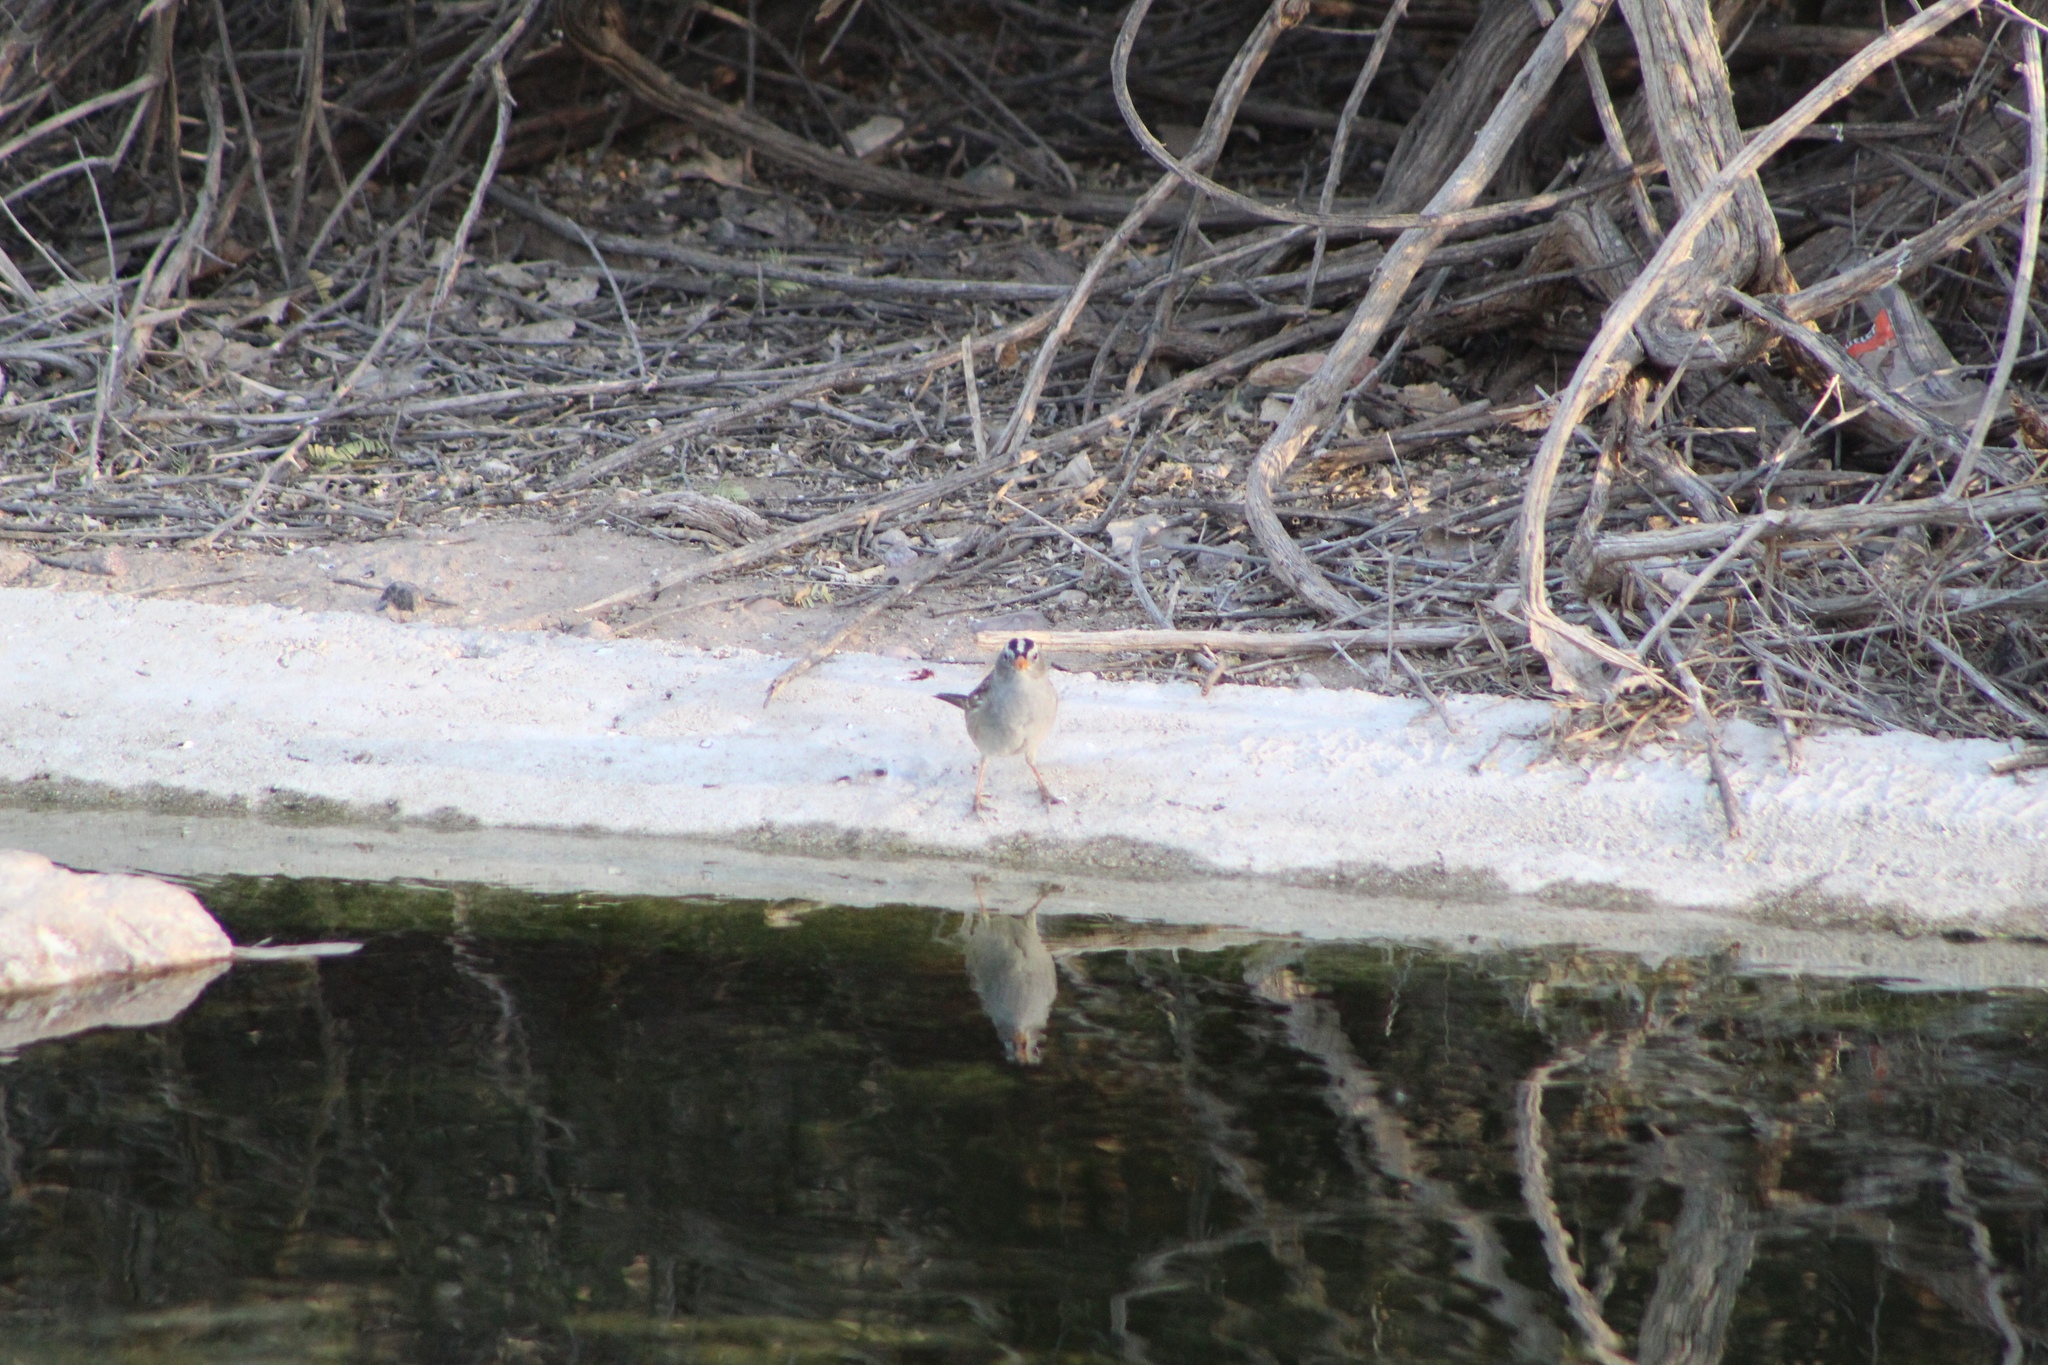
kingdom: Animalia
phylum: Chordata
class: Aves
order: Passeriformes
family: Passerellidae
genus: Zonotrichia
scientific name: Zonotrichia leucophrys
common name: White-crowned sparrow
